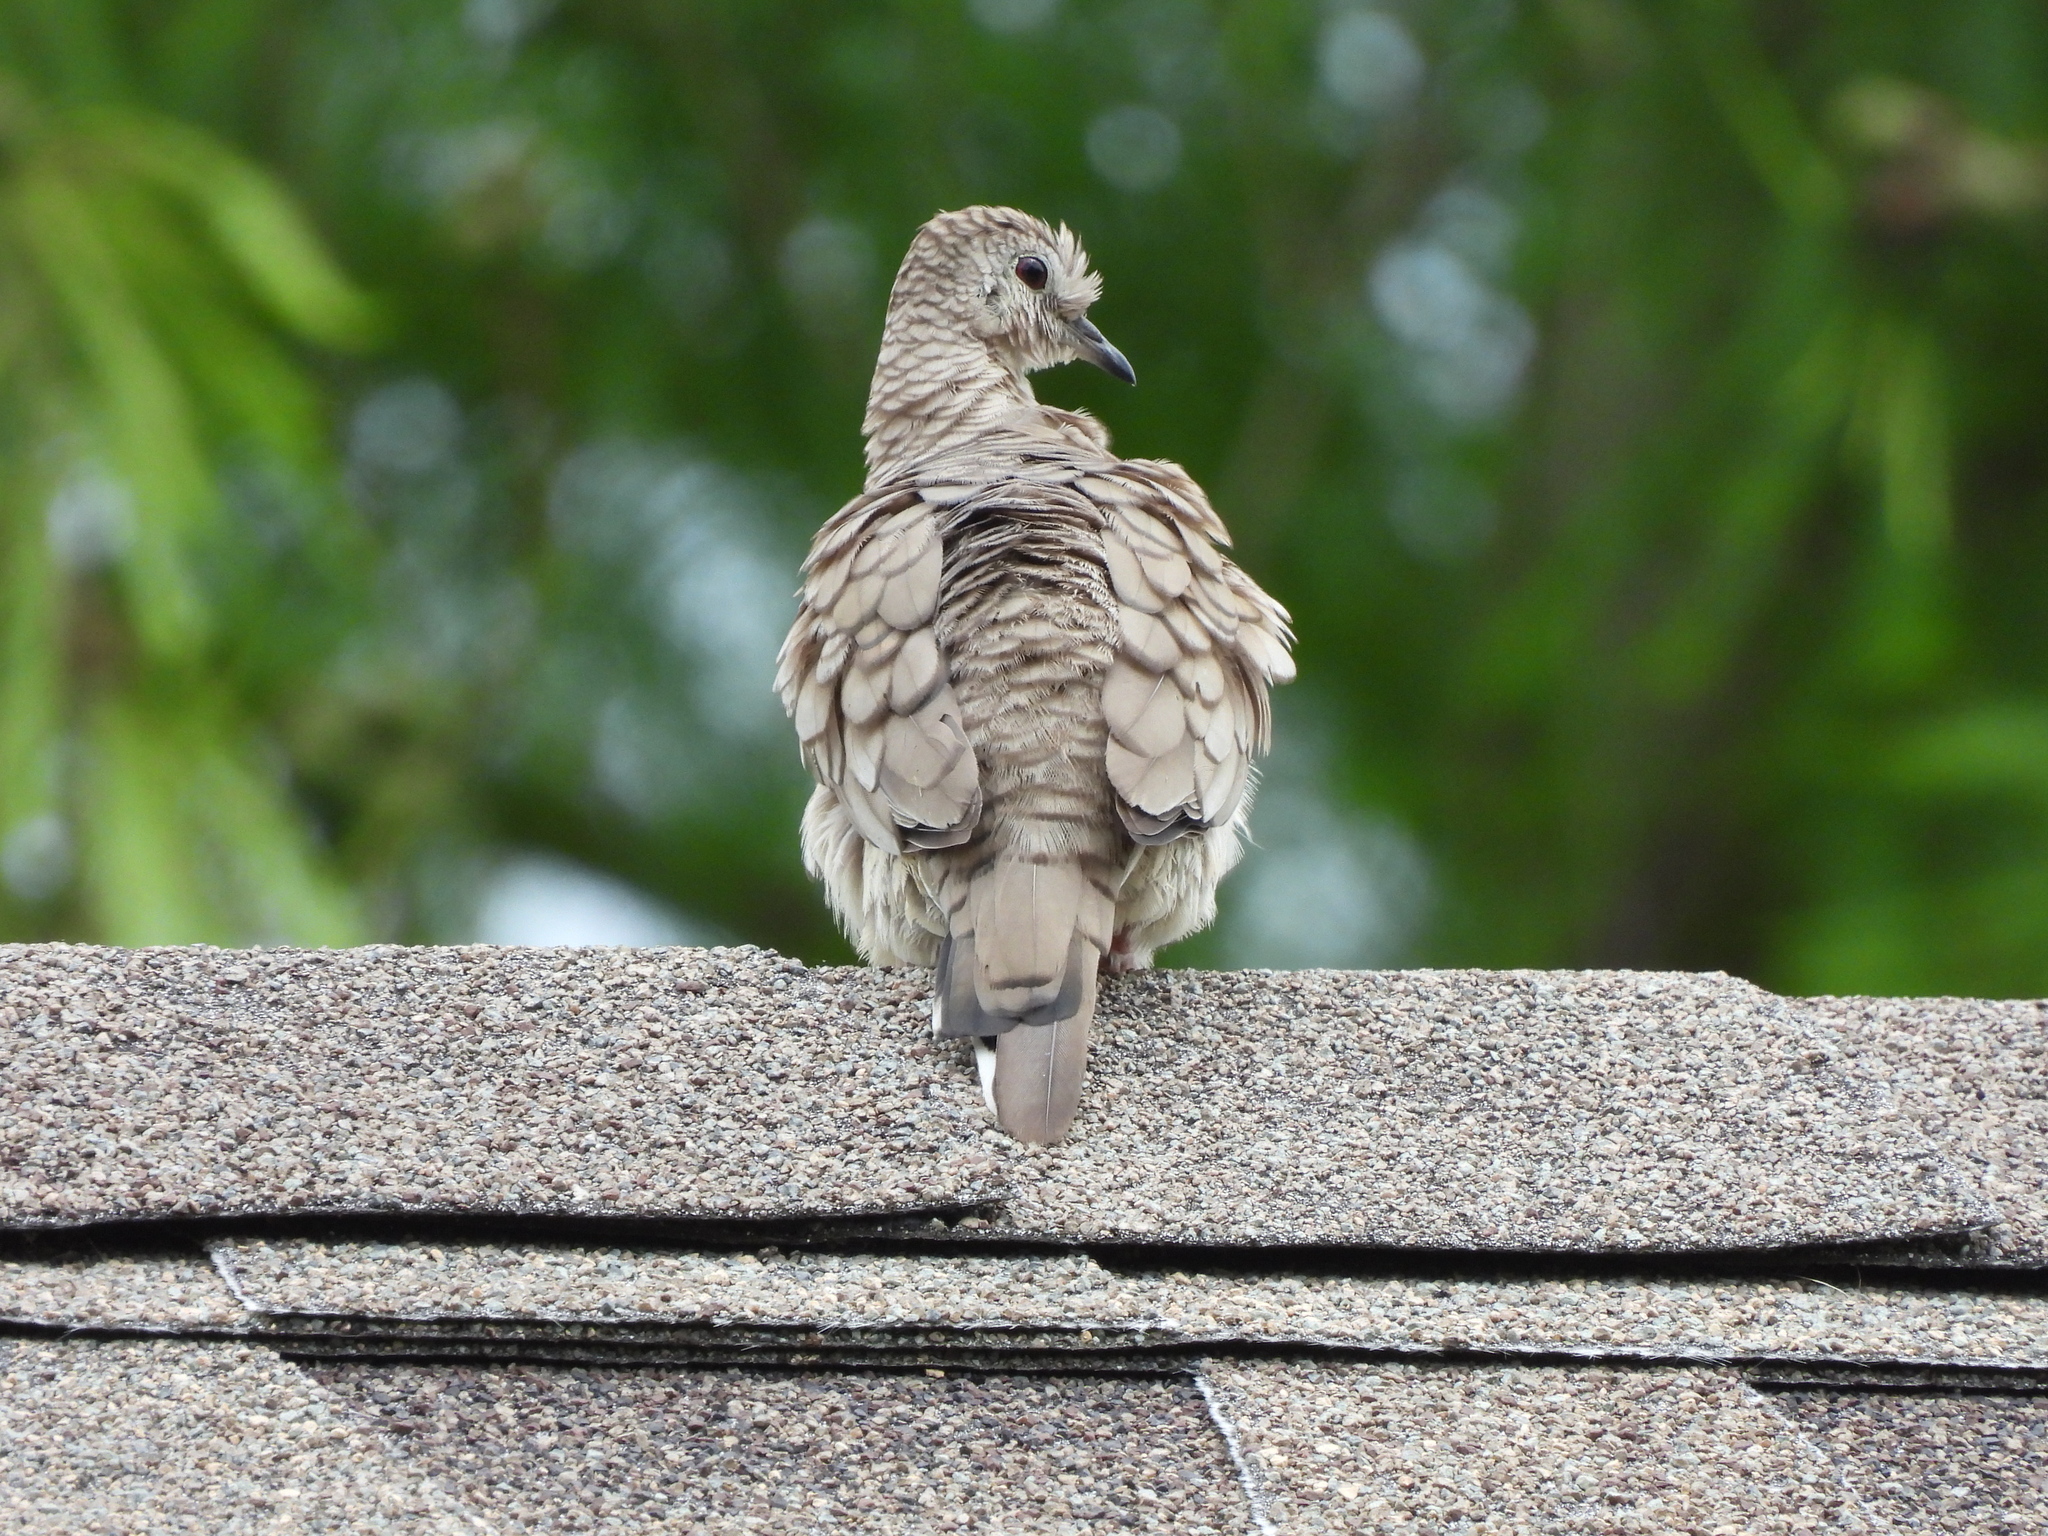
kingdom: Animalia
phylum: Chordata
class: Aves
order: Columbiformes
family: Columbidae
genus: Columbina
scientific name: Columbina inca
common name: Inca dove
